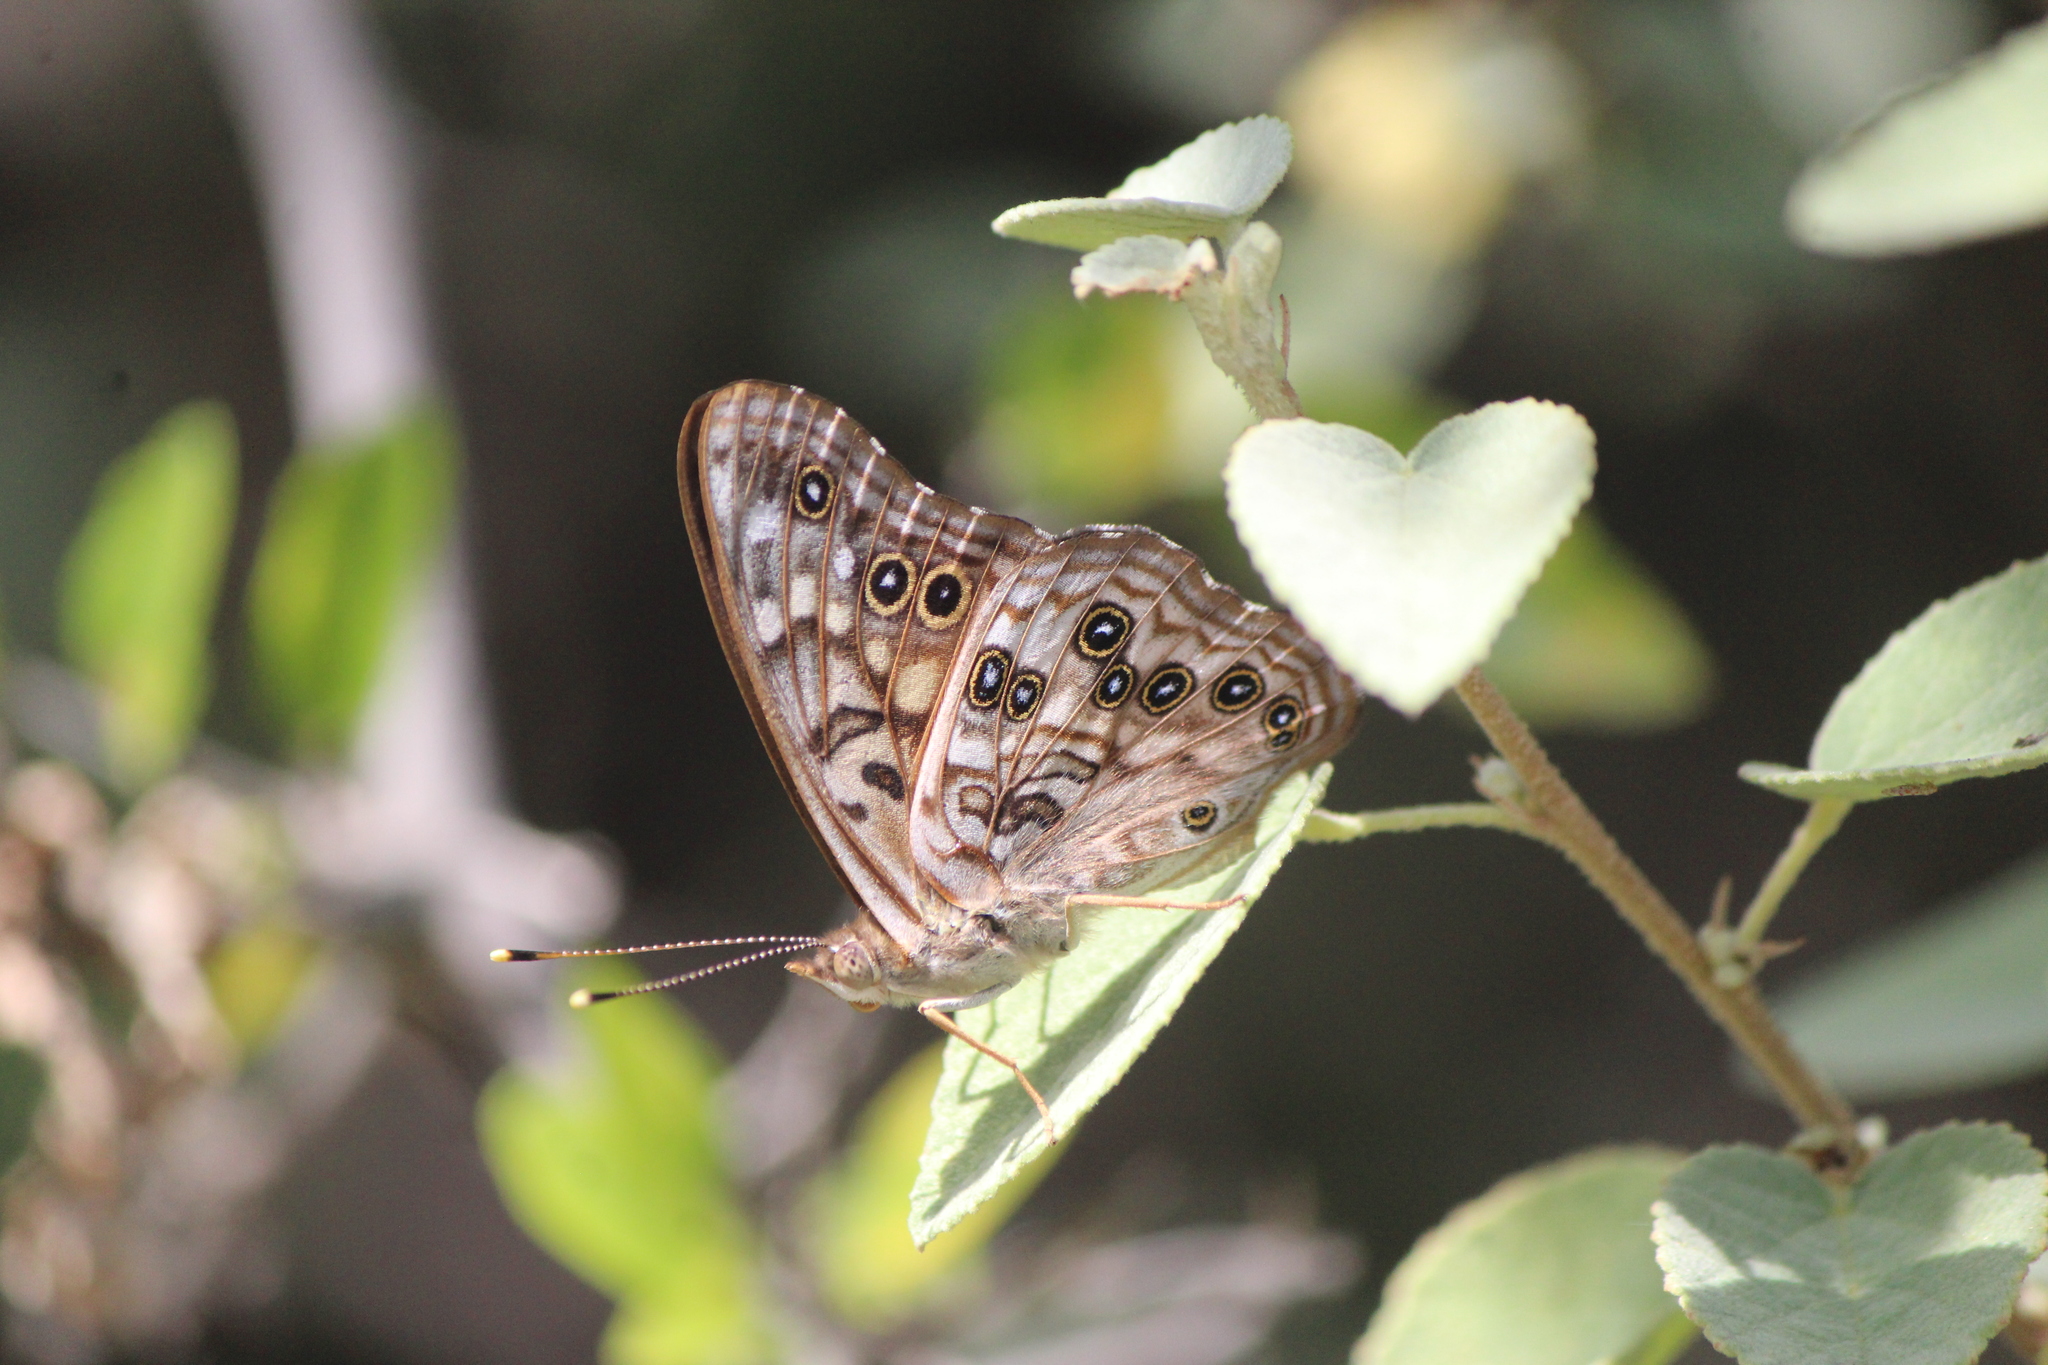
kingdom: Animalia
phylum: Arthropoda
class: Insecta
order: Lepidoptera
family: Nymphalidae
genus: Asterocampa
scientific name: Asterocampa leilia
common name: Empress leilia
